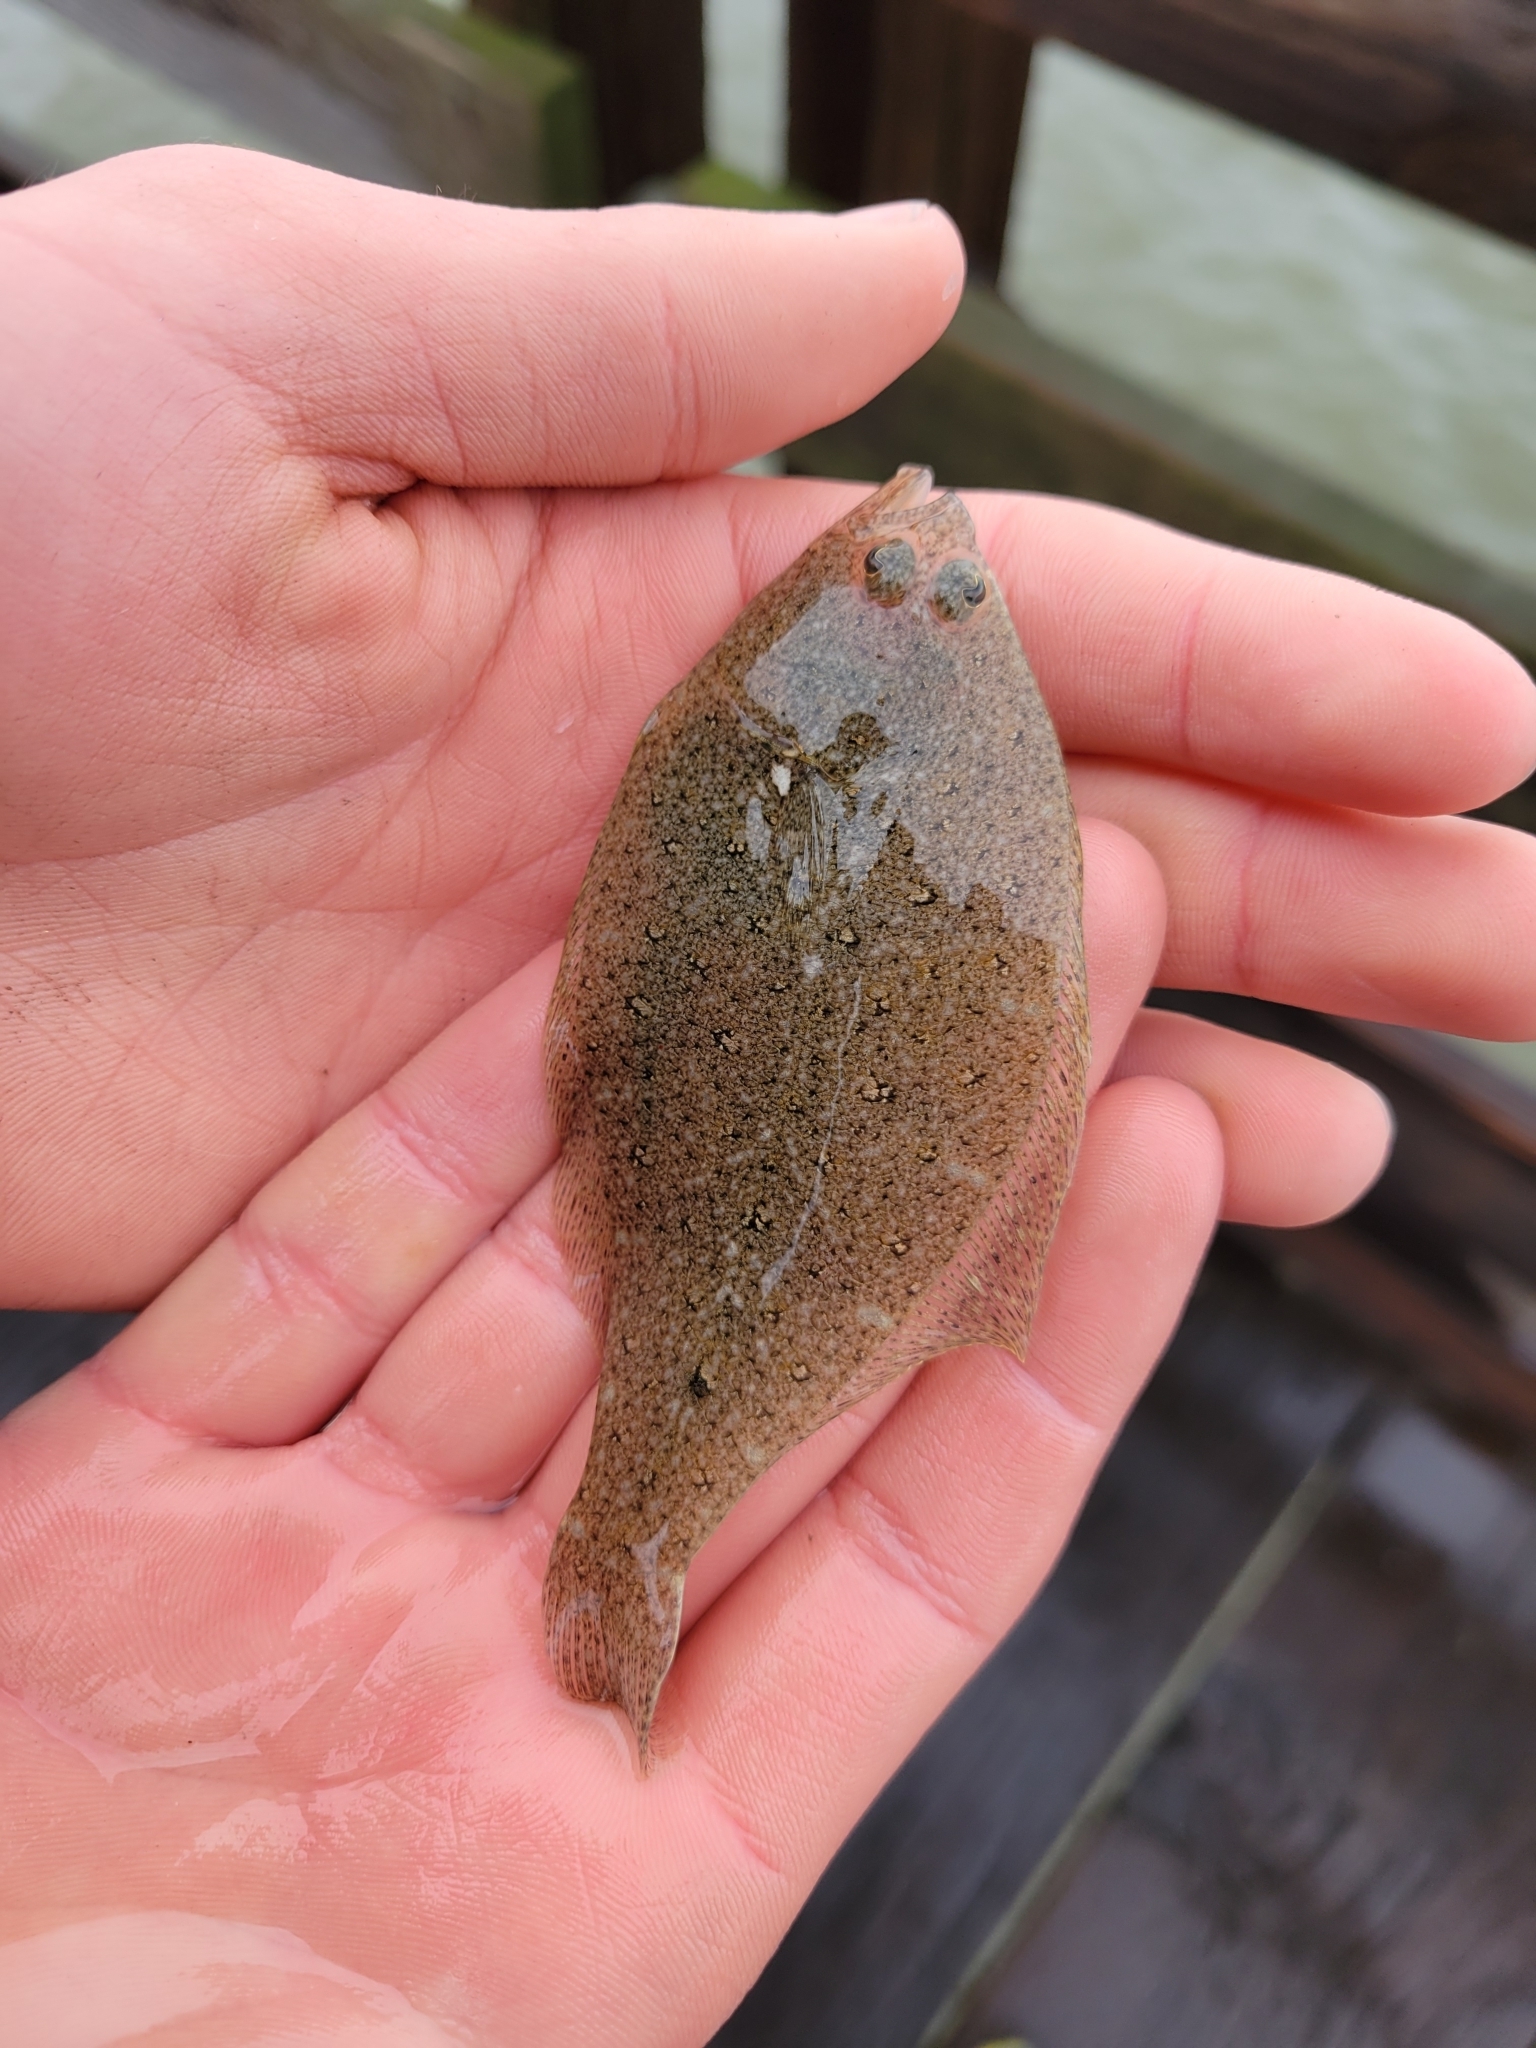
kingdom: Animalia
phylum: Chordata
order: Pleuronectiformes
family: Paralichthyidae
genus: Citharichthys
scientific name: Citharichthys stigmaeus
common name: Speckled sanddab
